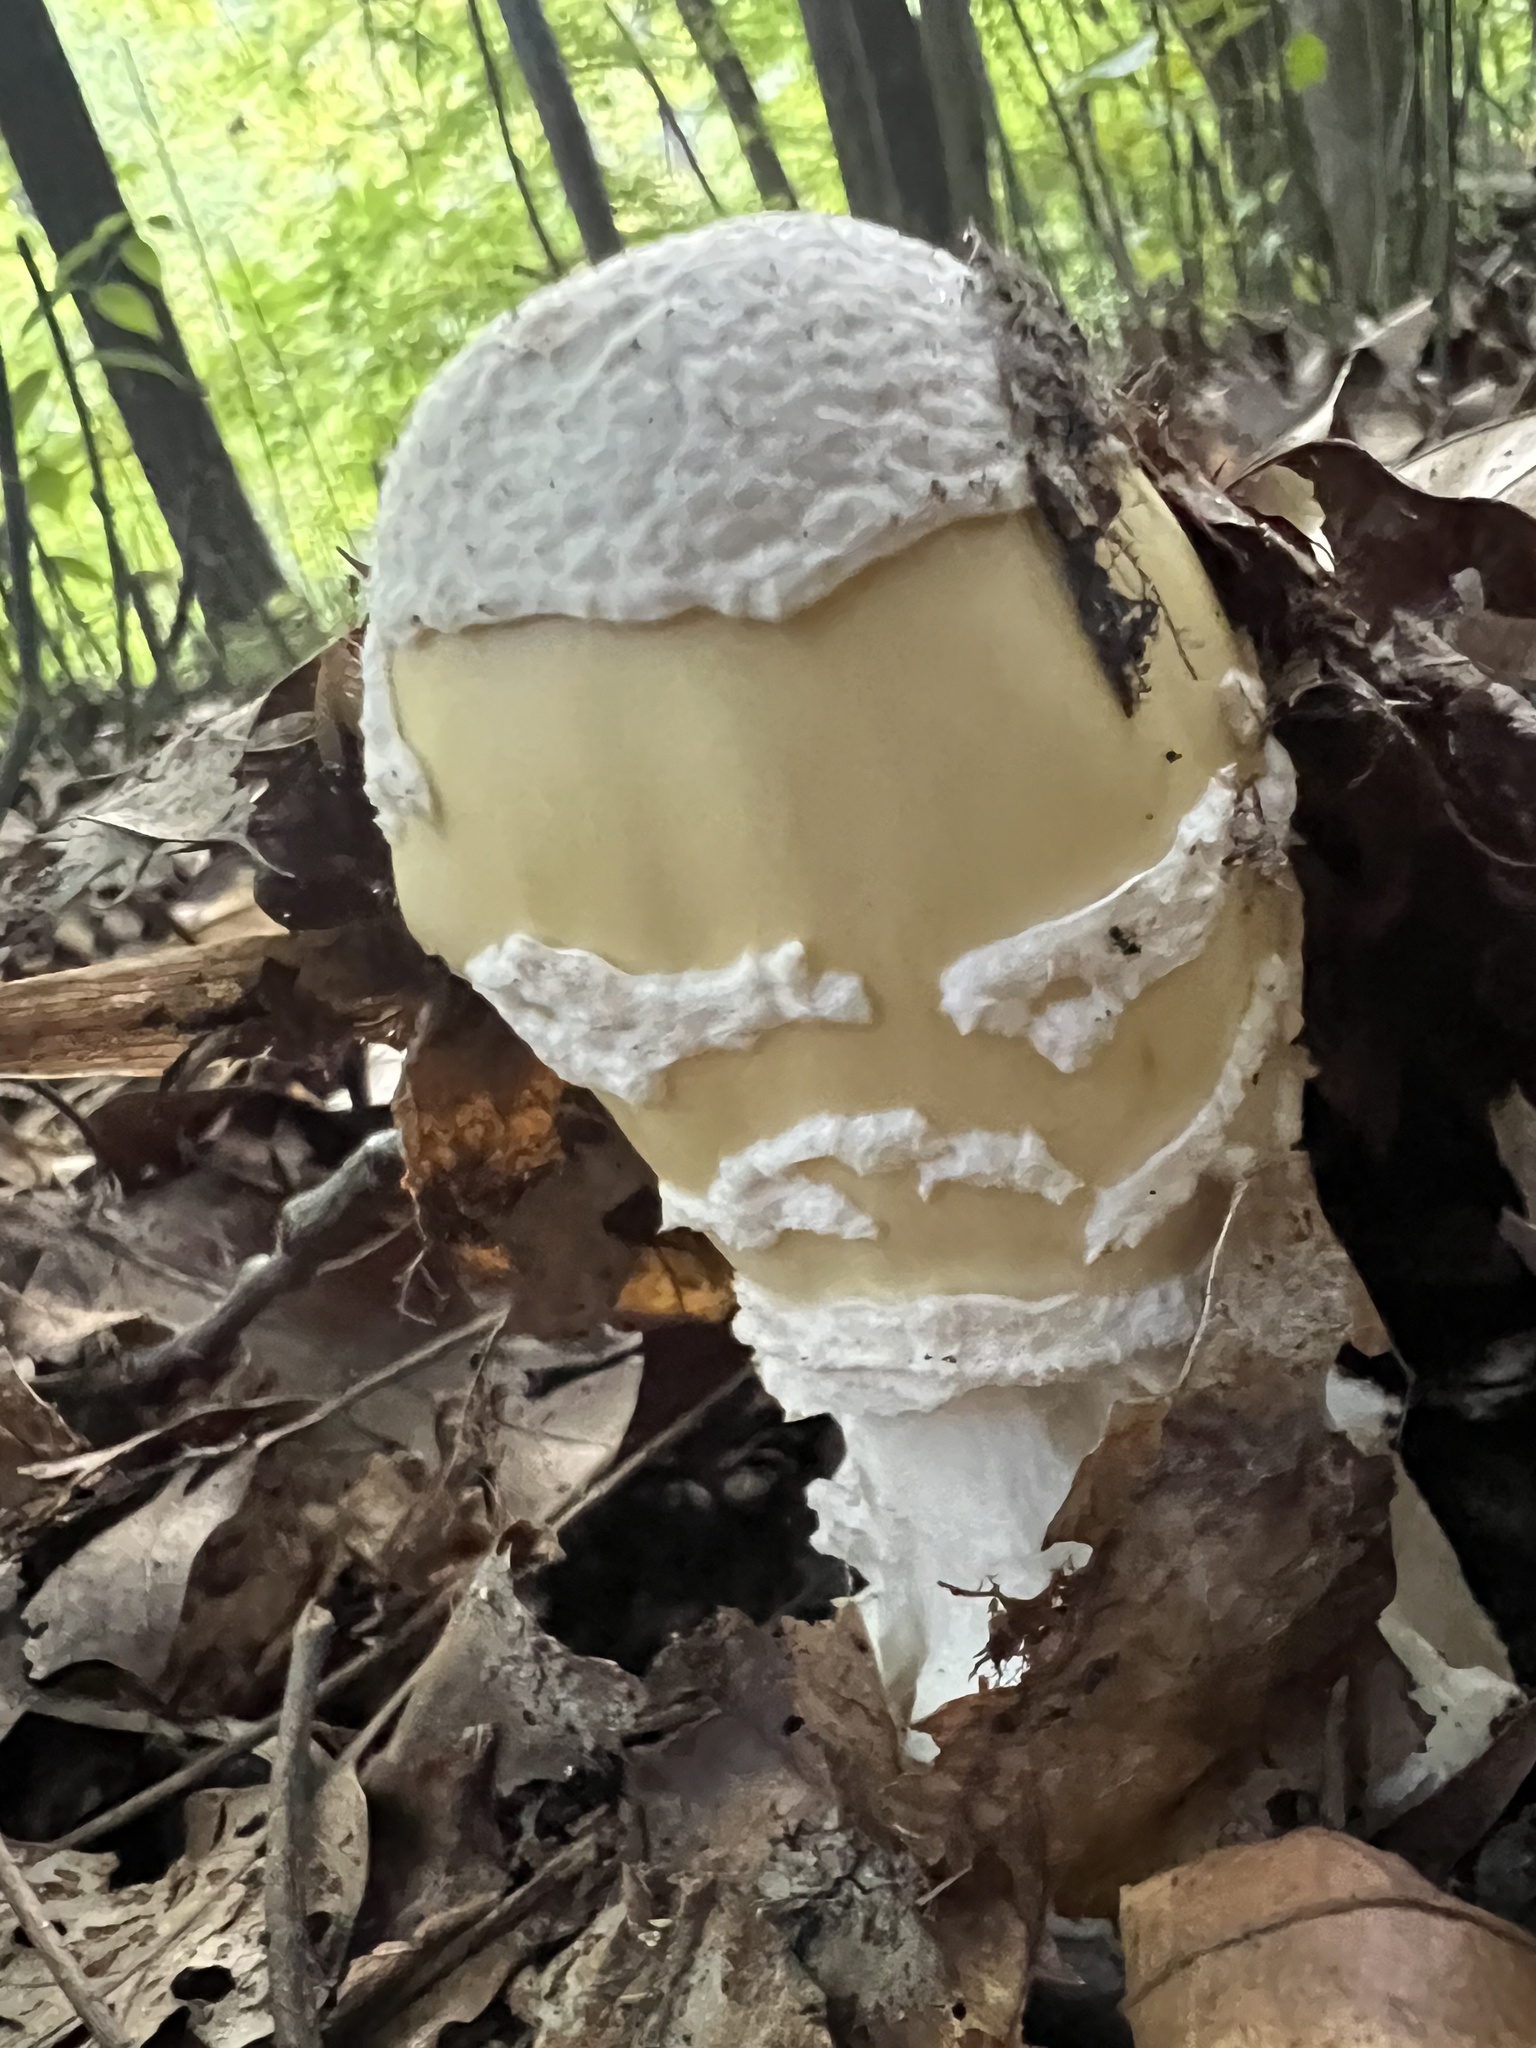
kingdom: Fungi
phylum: Basidiomycota
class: Agaricomycetes
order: Agaricales
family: Amanitaceae
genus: Amanita
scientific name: Amanita velatipes
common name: Great funnel-veil amanita
